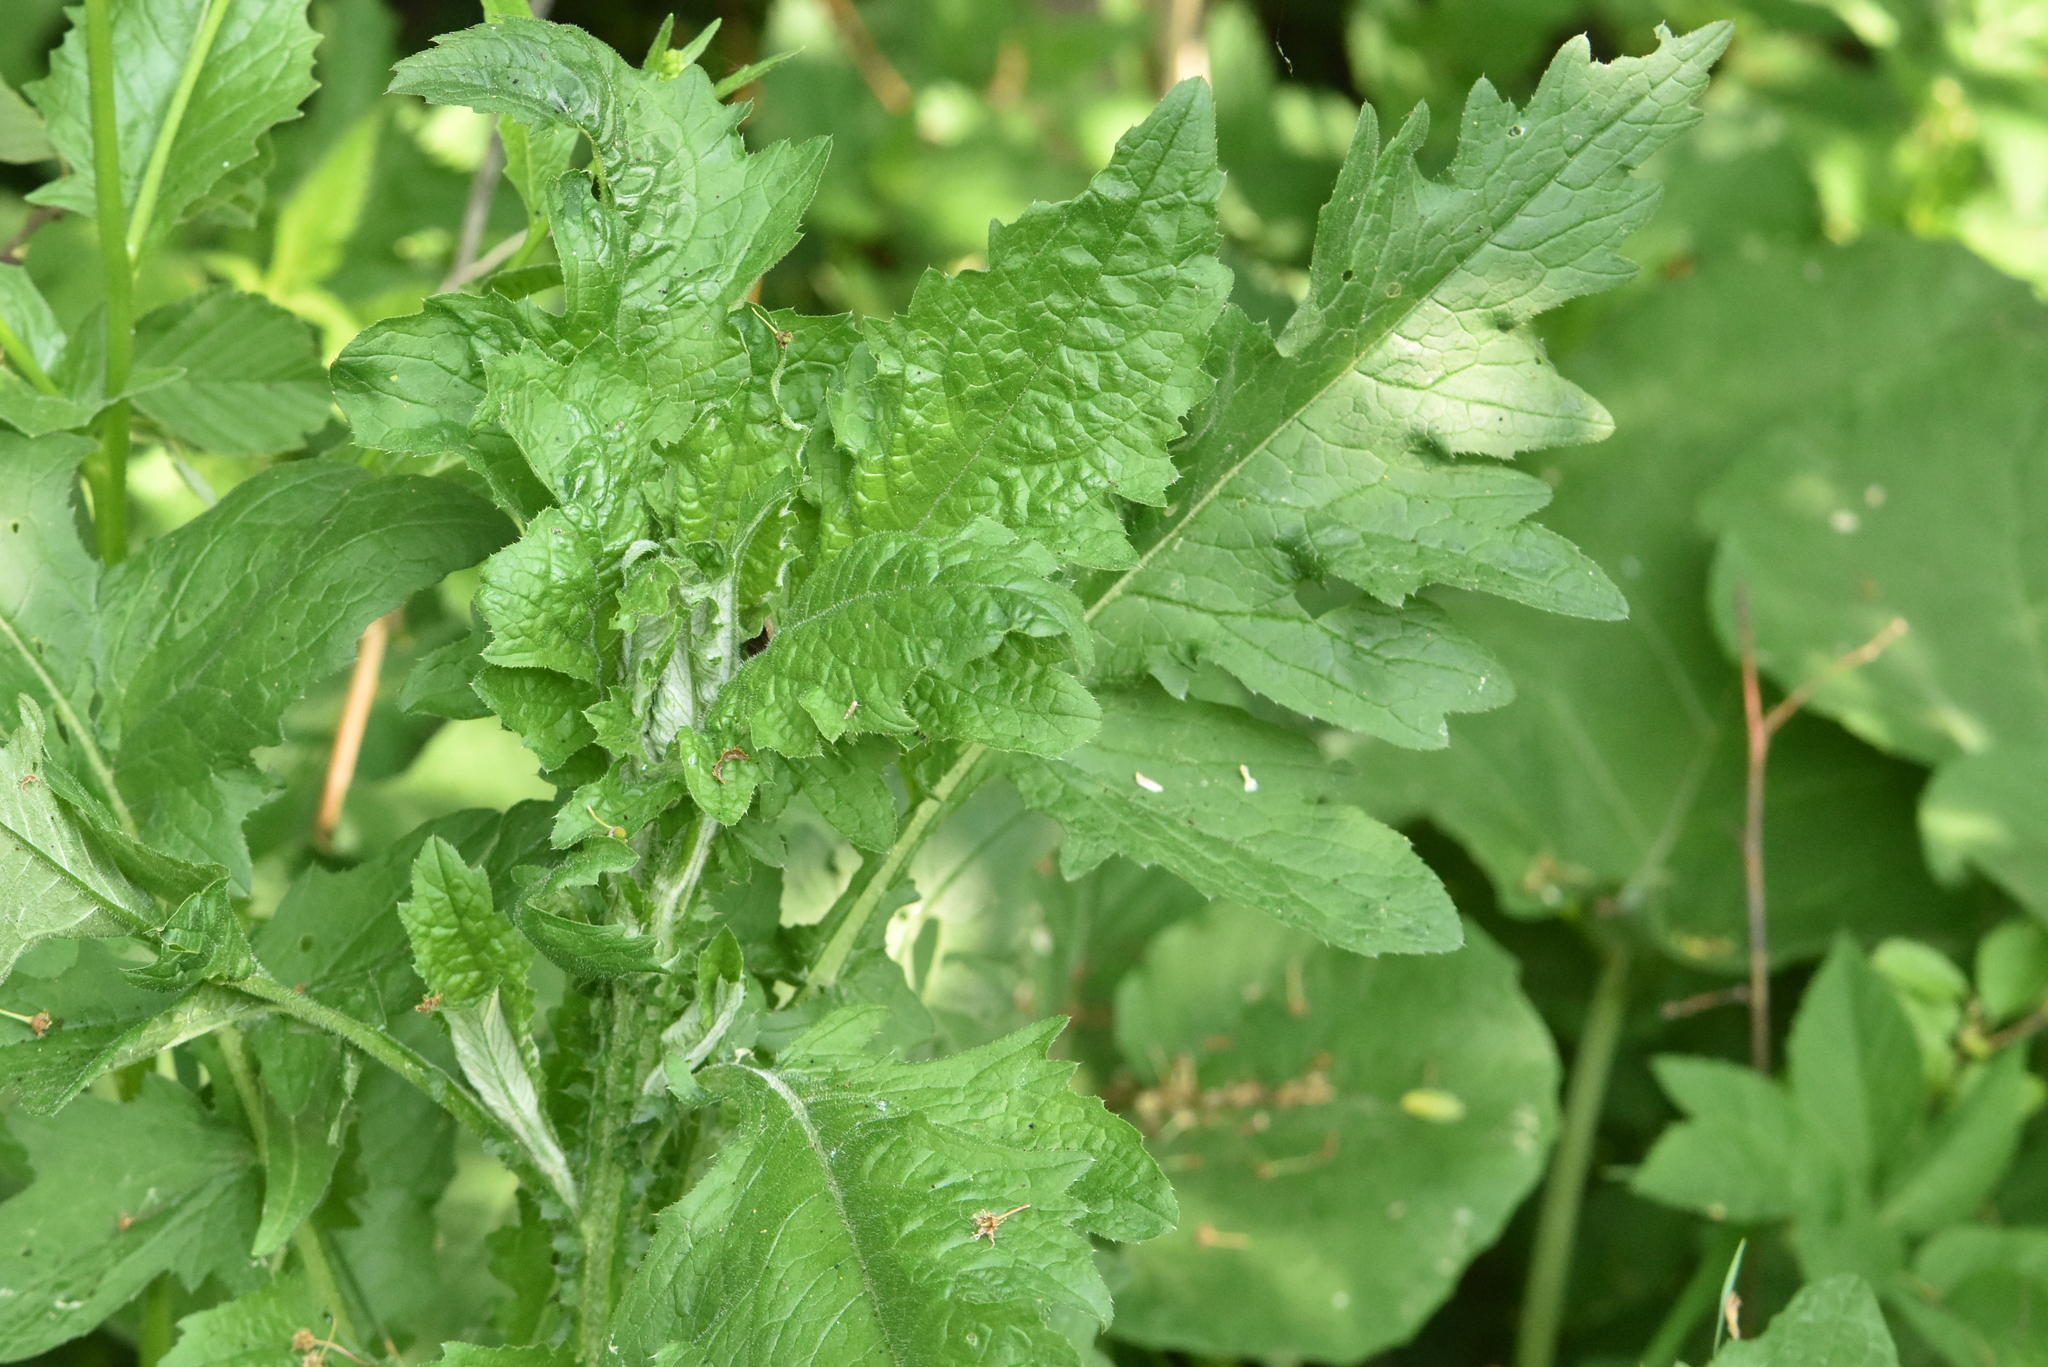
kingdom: Plantae
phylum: Tracheophyta
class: Magnoliopsida
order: Asterales
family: Asteraceae
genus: Carduus
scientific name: Carduus crispus
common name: Welted thistle
